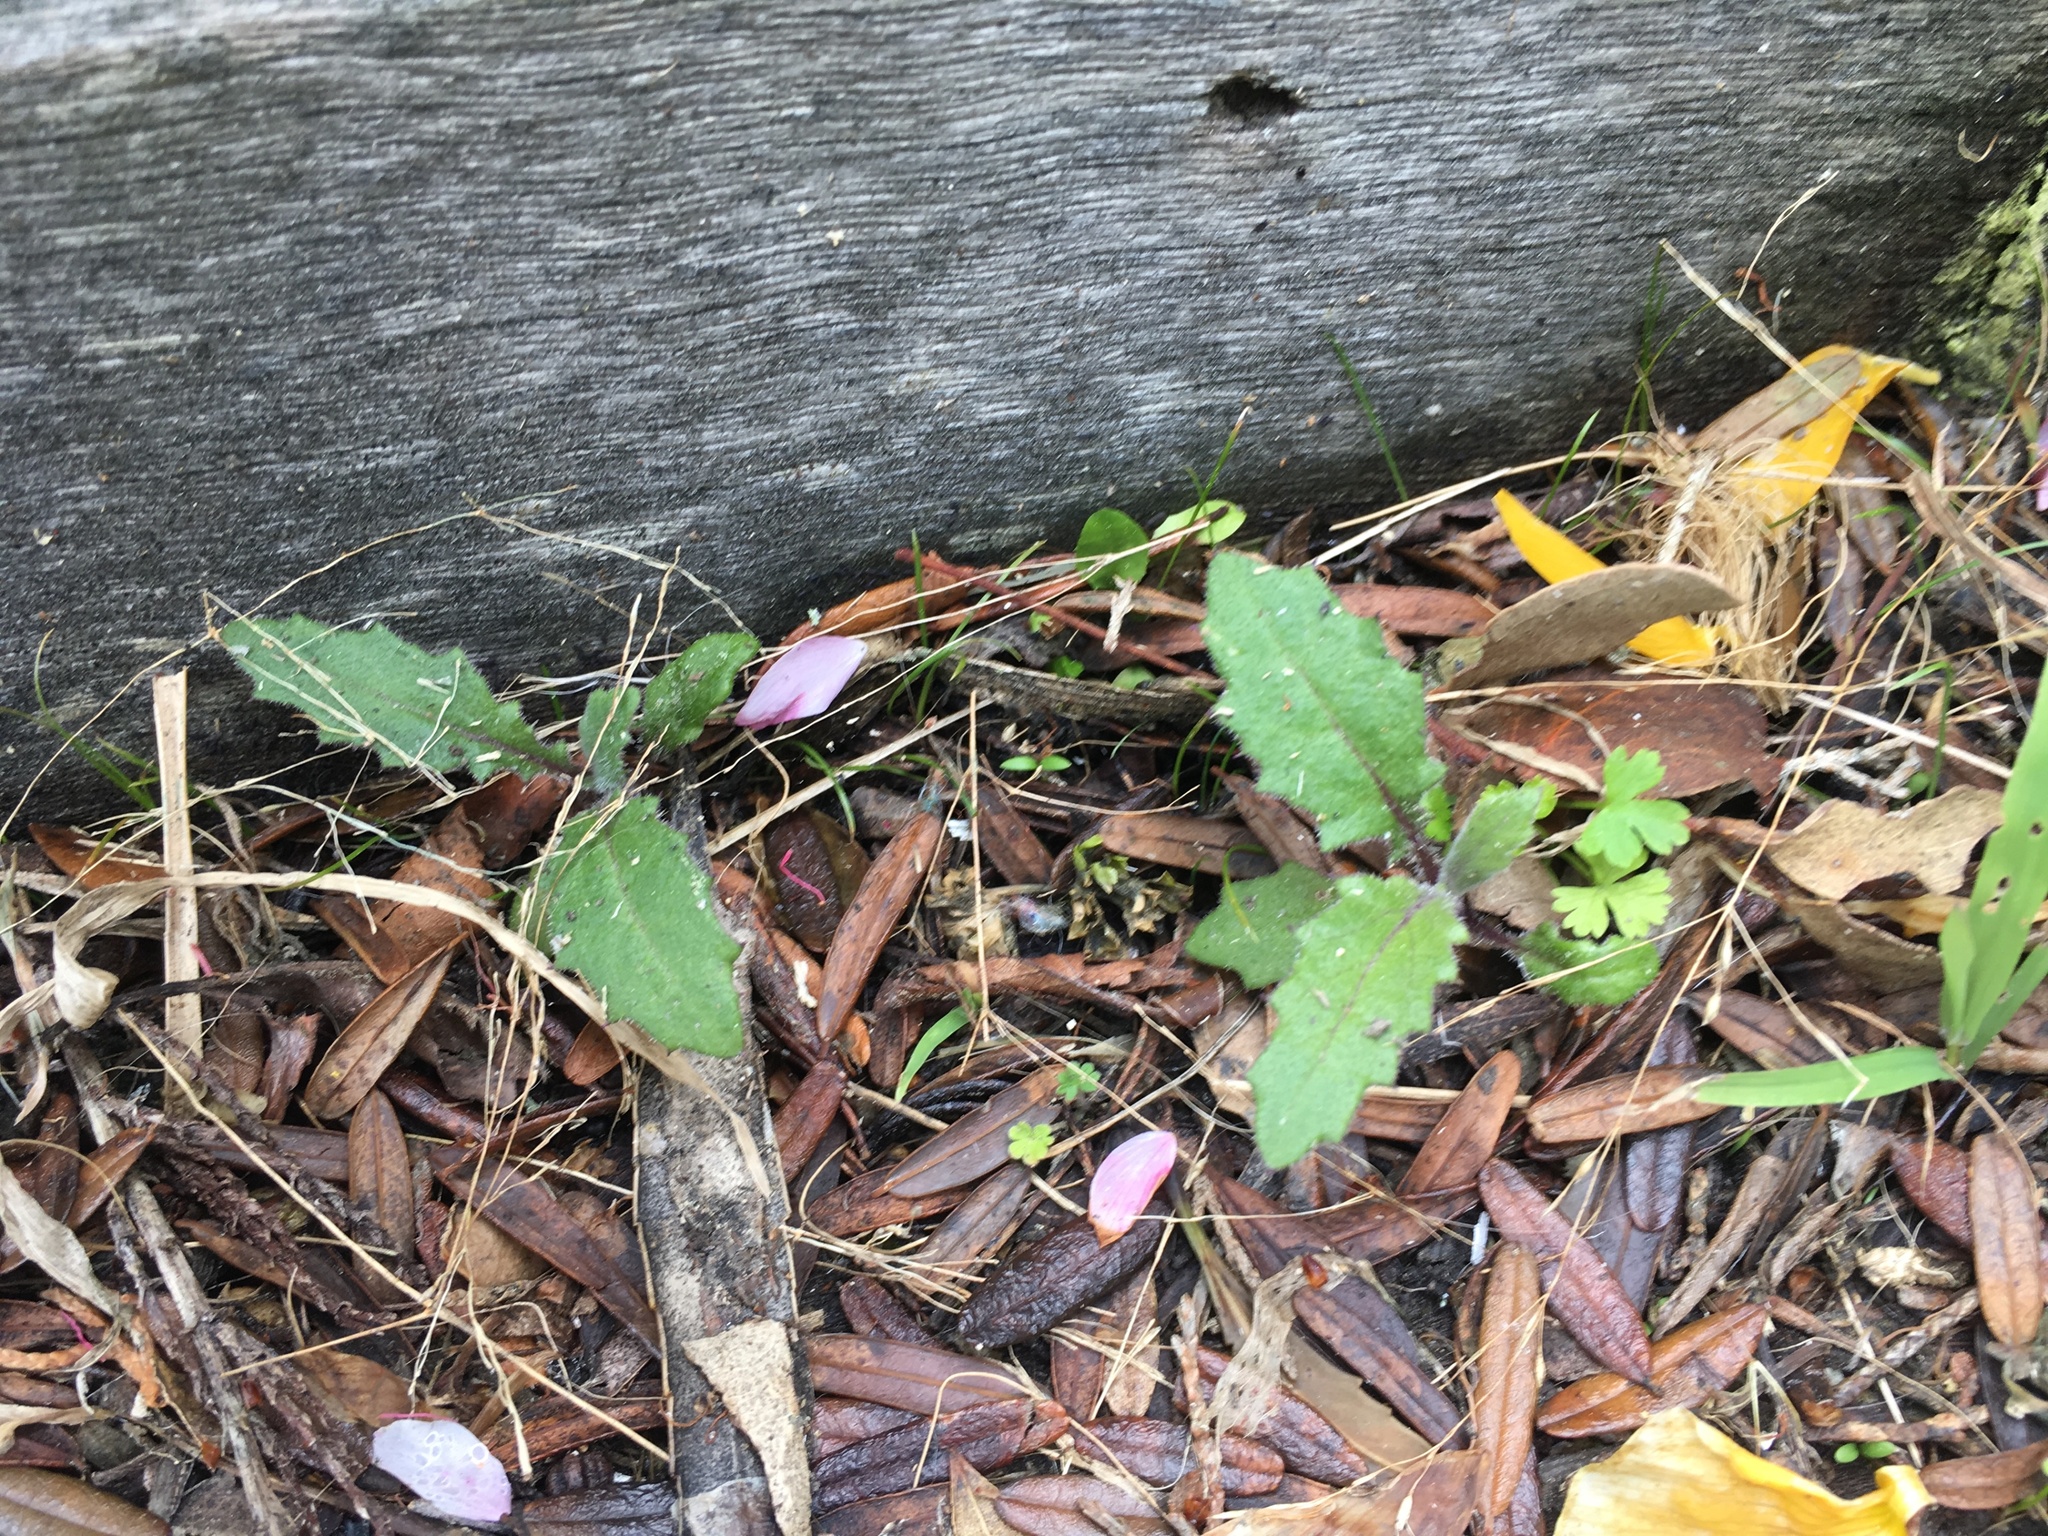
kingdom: Plantae
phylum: Tracheophyta
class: Magnoliopsida
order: Asterales
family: Asteraceae
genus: Senecio
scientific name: Senecio minimus
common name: Toothed fireweed
